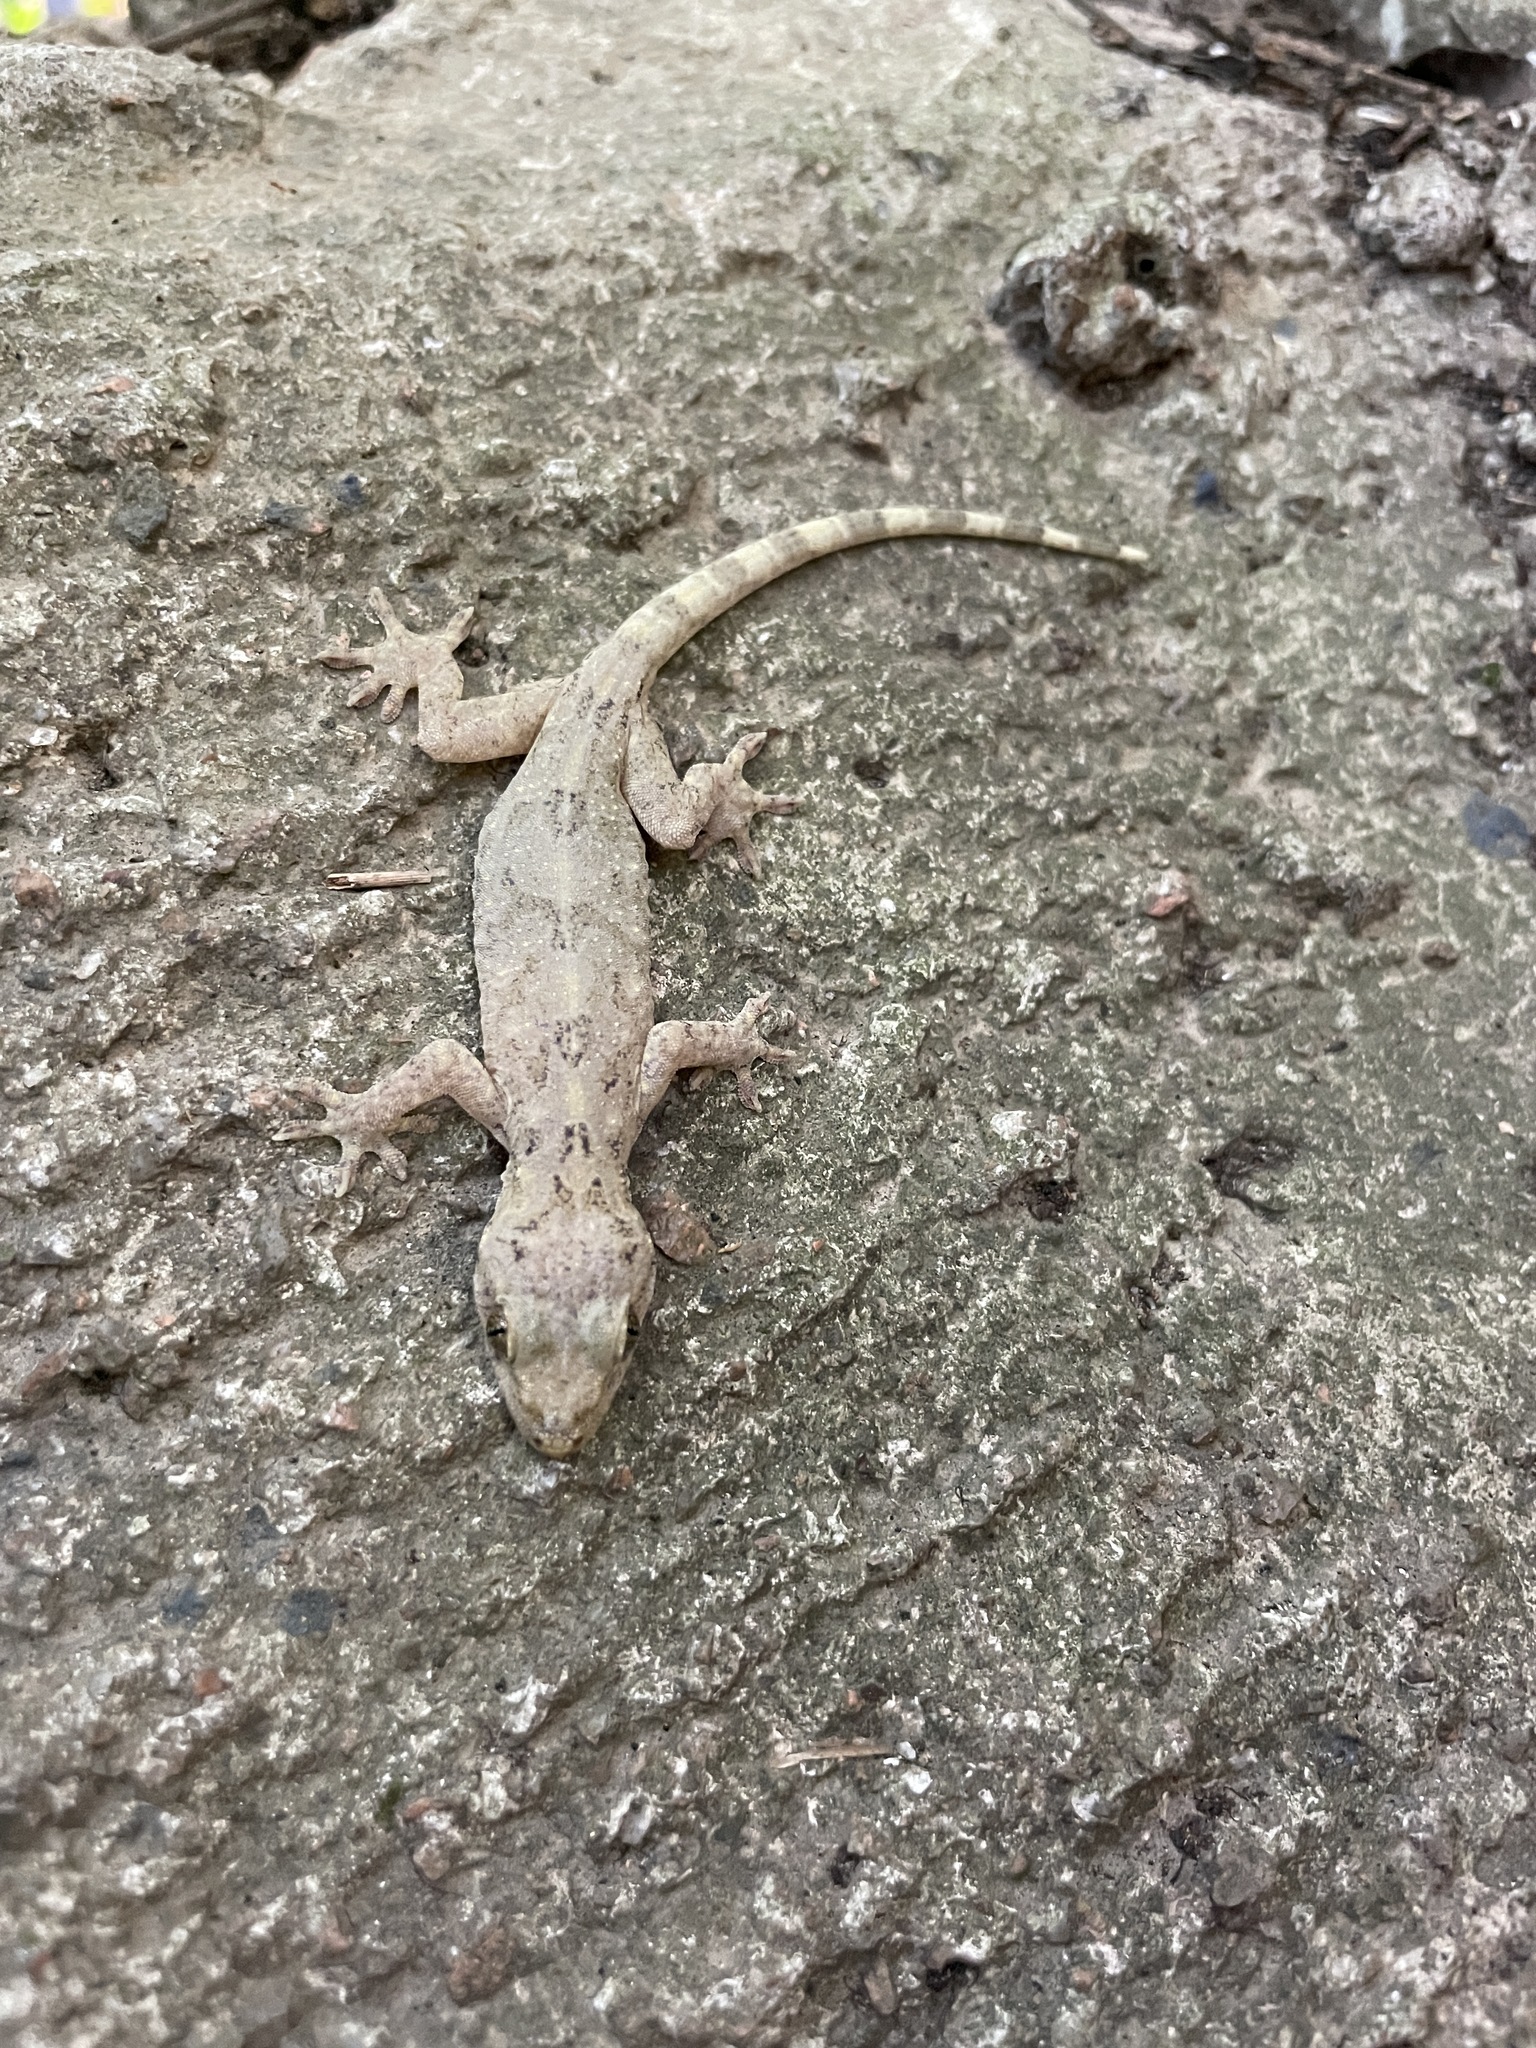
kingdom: Animalia
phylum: Chordata
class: Squamata
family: Gekkonidae
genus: Gekko
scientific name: Gekko chinensis
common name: Gray's chinese gecko
